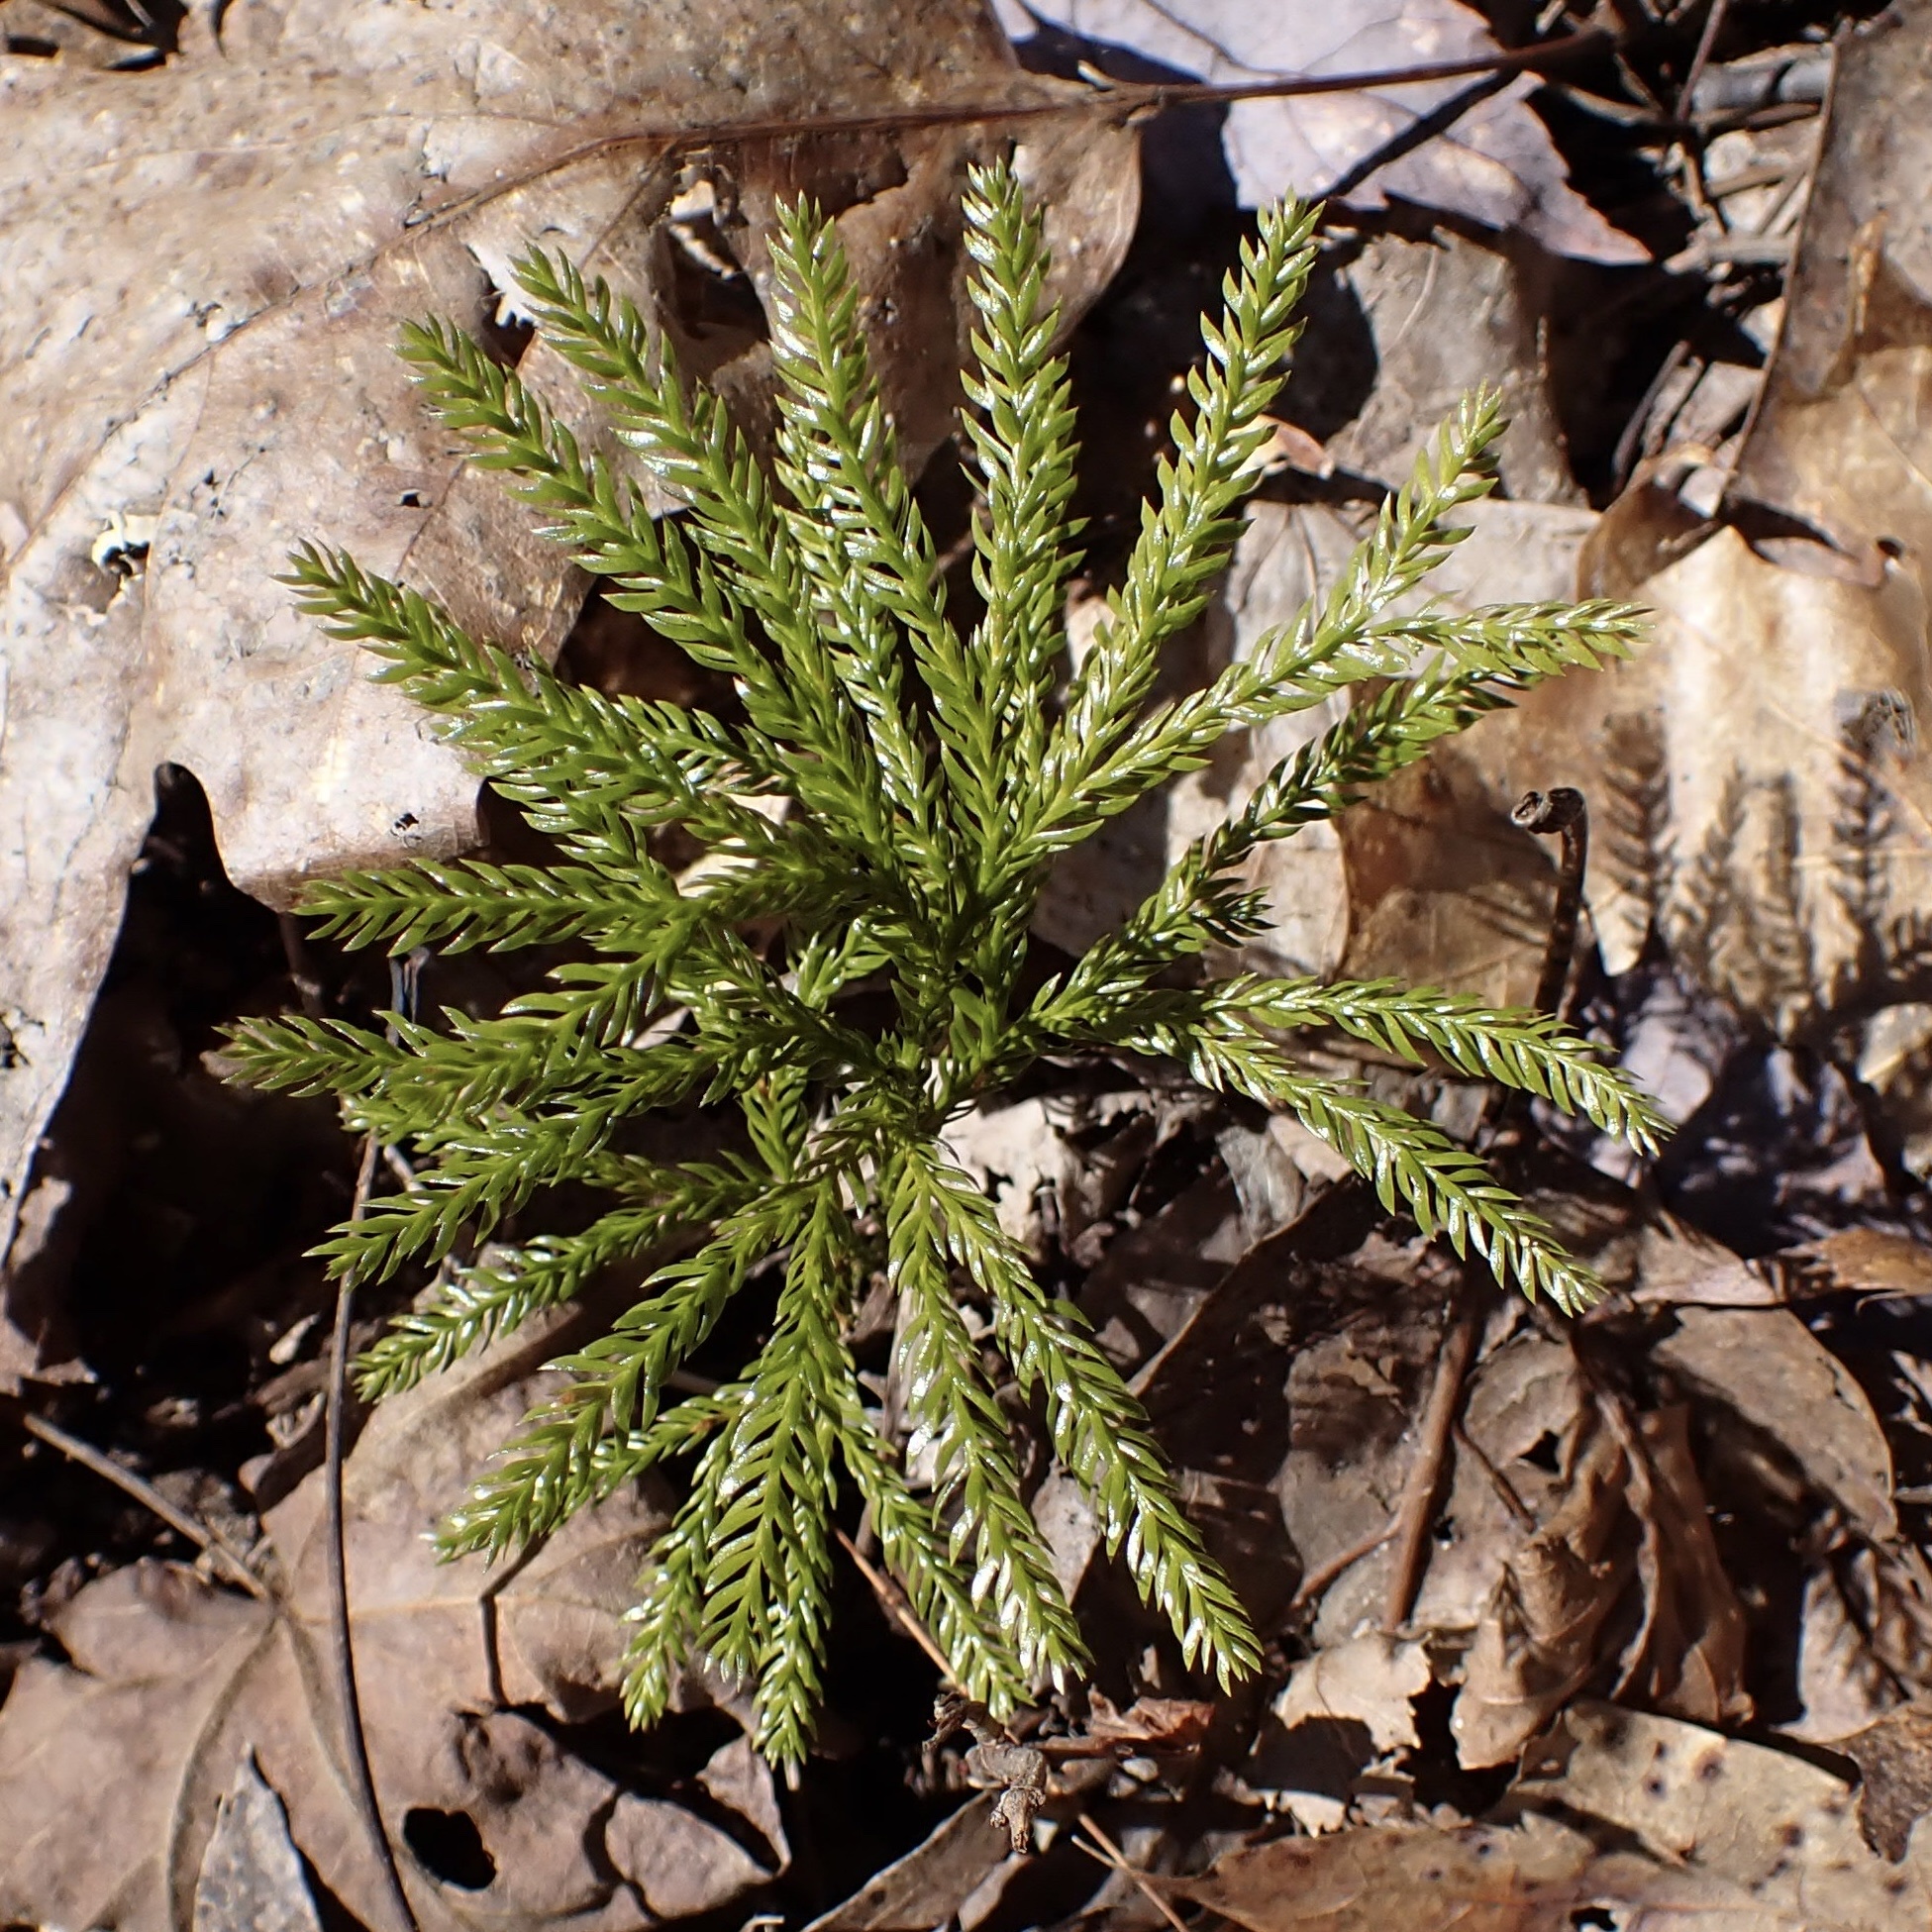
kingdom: Plantae
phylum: Tracheophyta
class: Lycopodiopsida
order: Lycopodiales
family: Lycopodiaceae
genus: Dendrolycopodium
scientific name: Dendrolycopodium obscurum
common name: Common ground-pine
